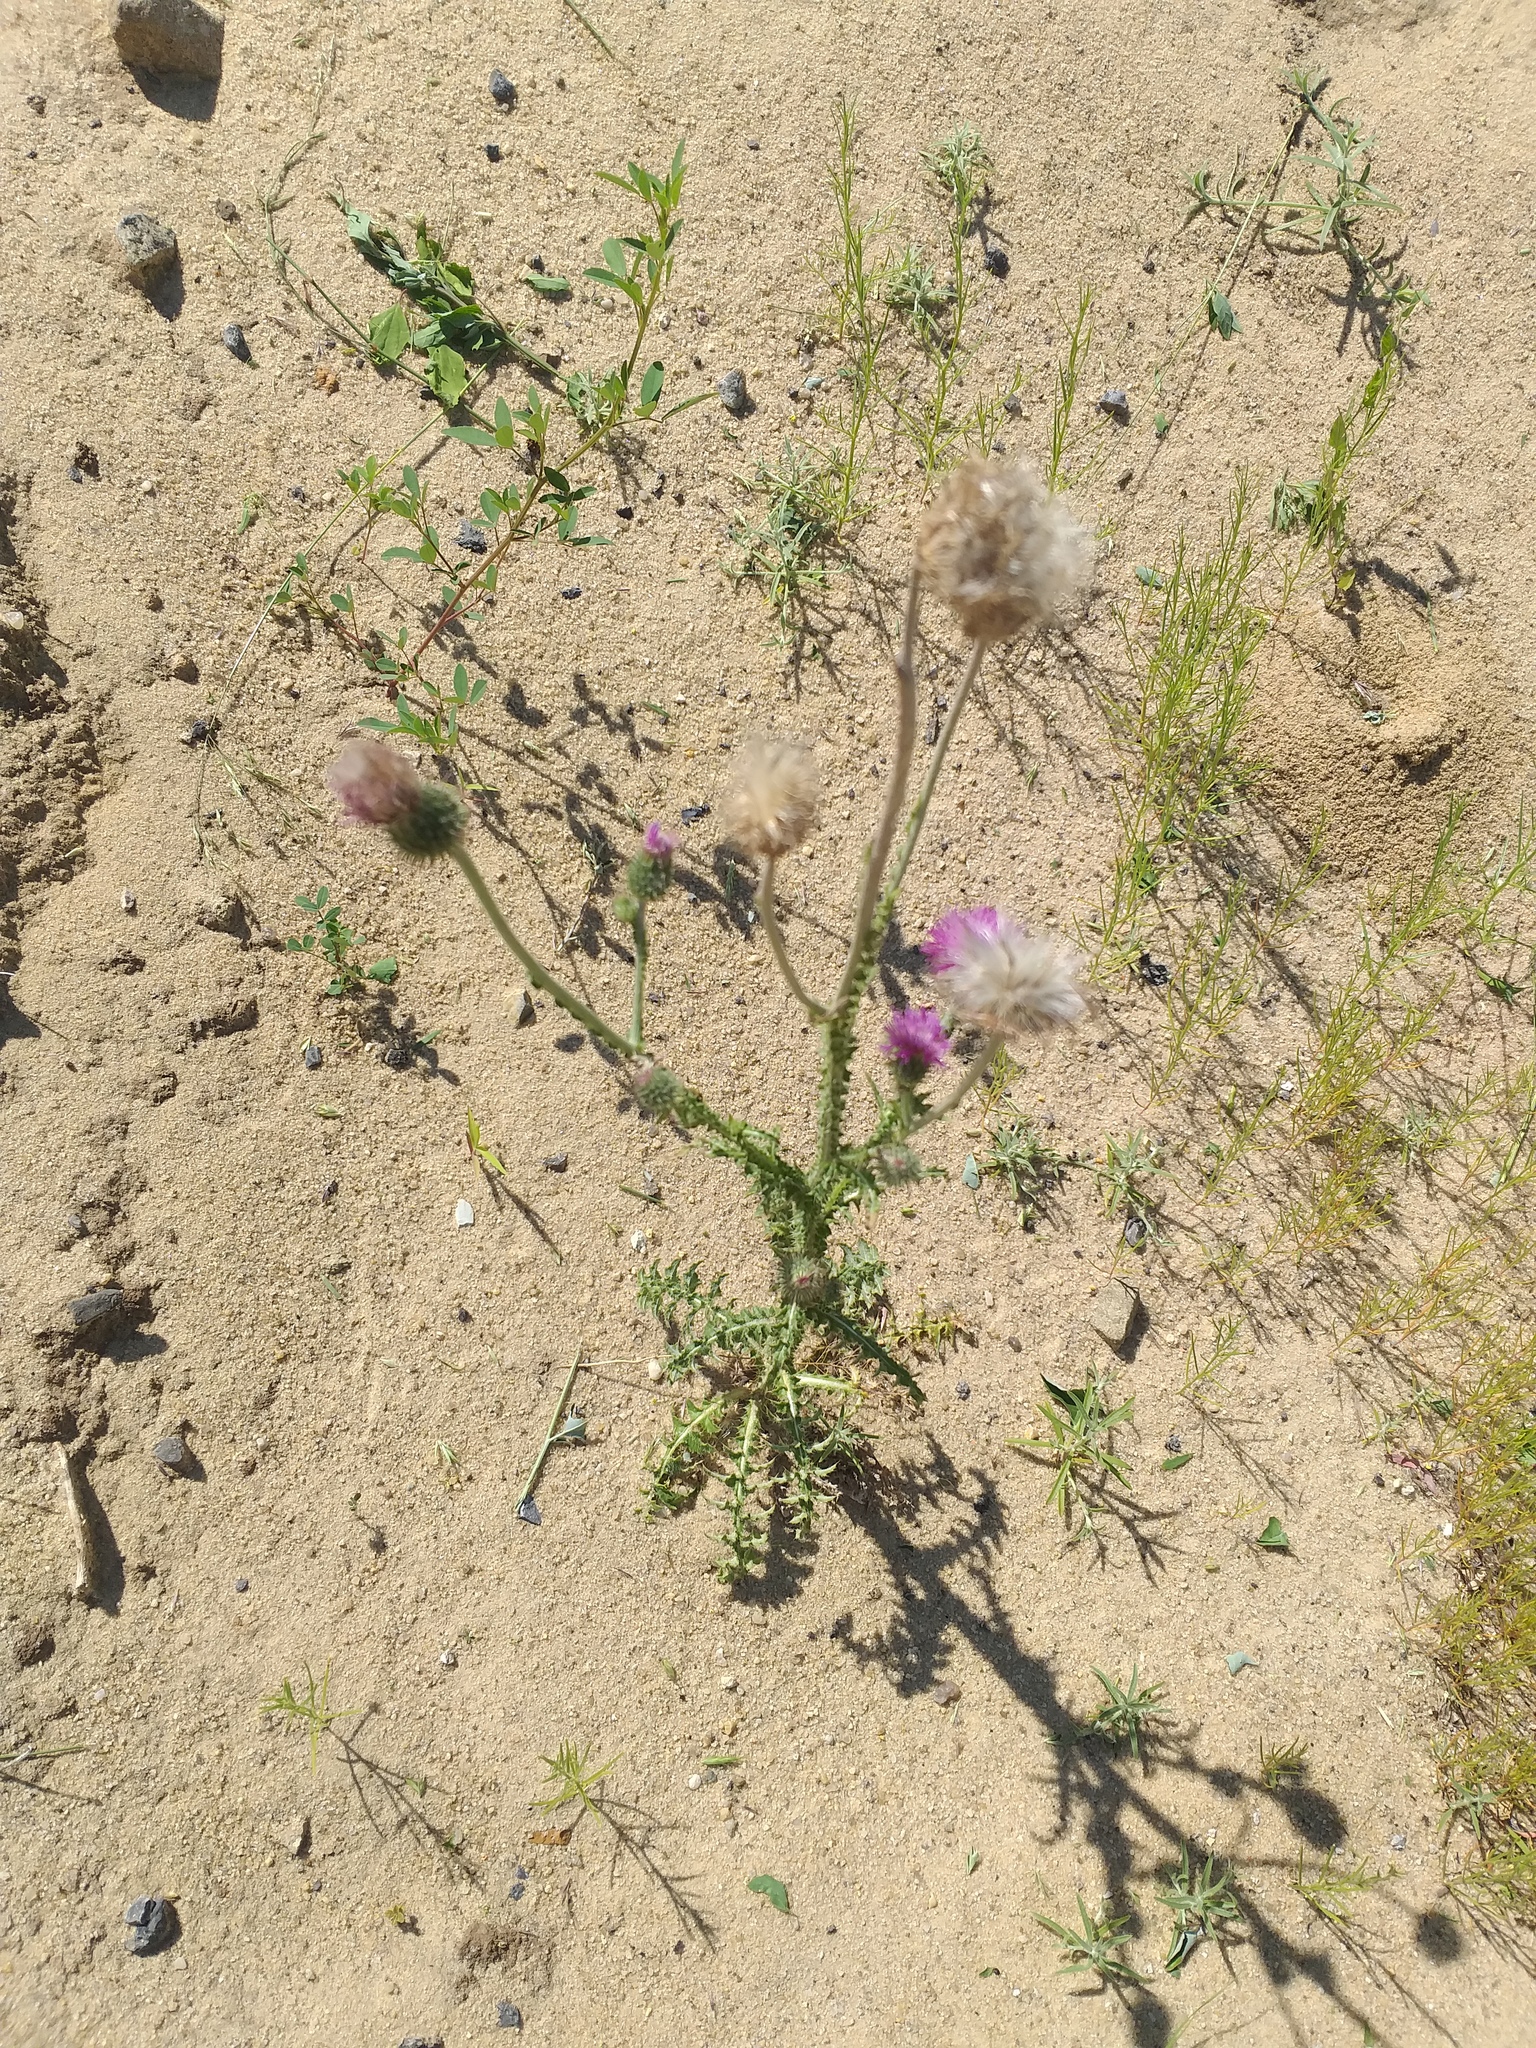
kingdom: Plantae
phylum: Tracheophyta
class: Magnoliopsida
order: Asterales
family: Asteraceae
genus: Carduus
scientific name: Carduus uncinatus
